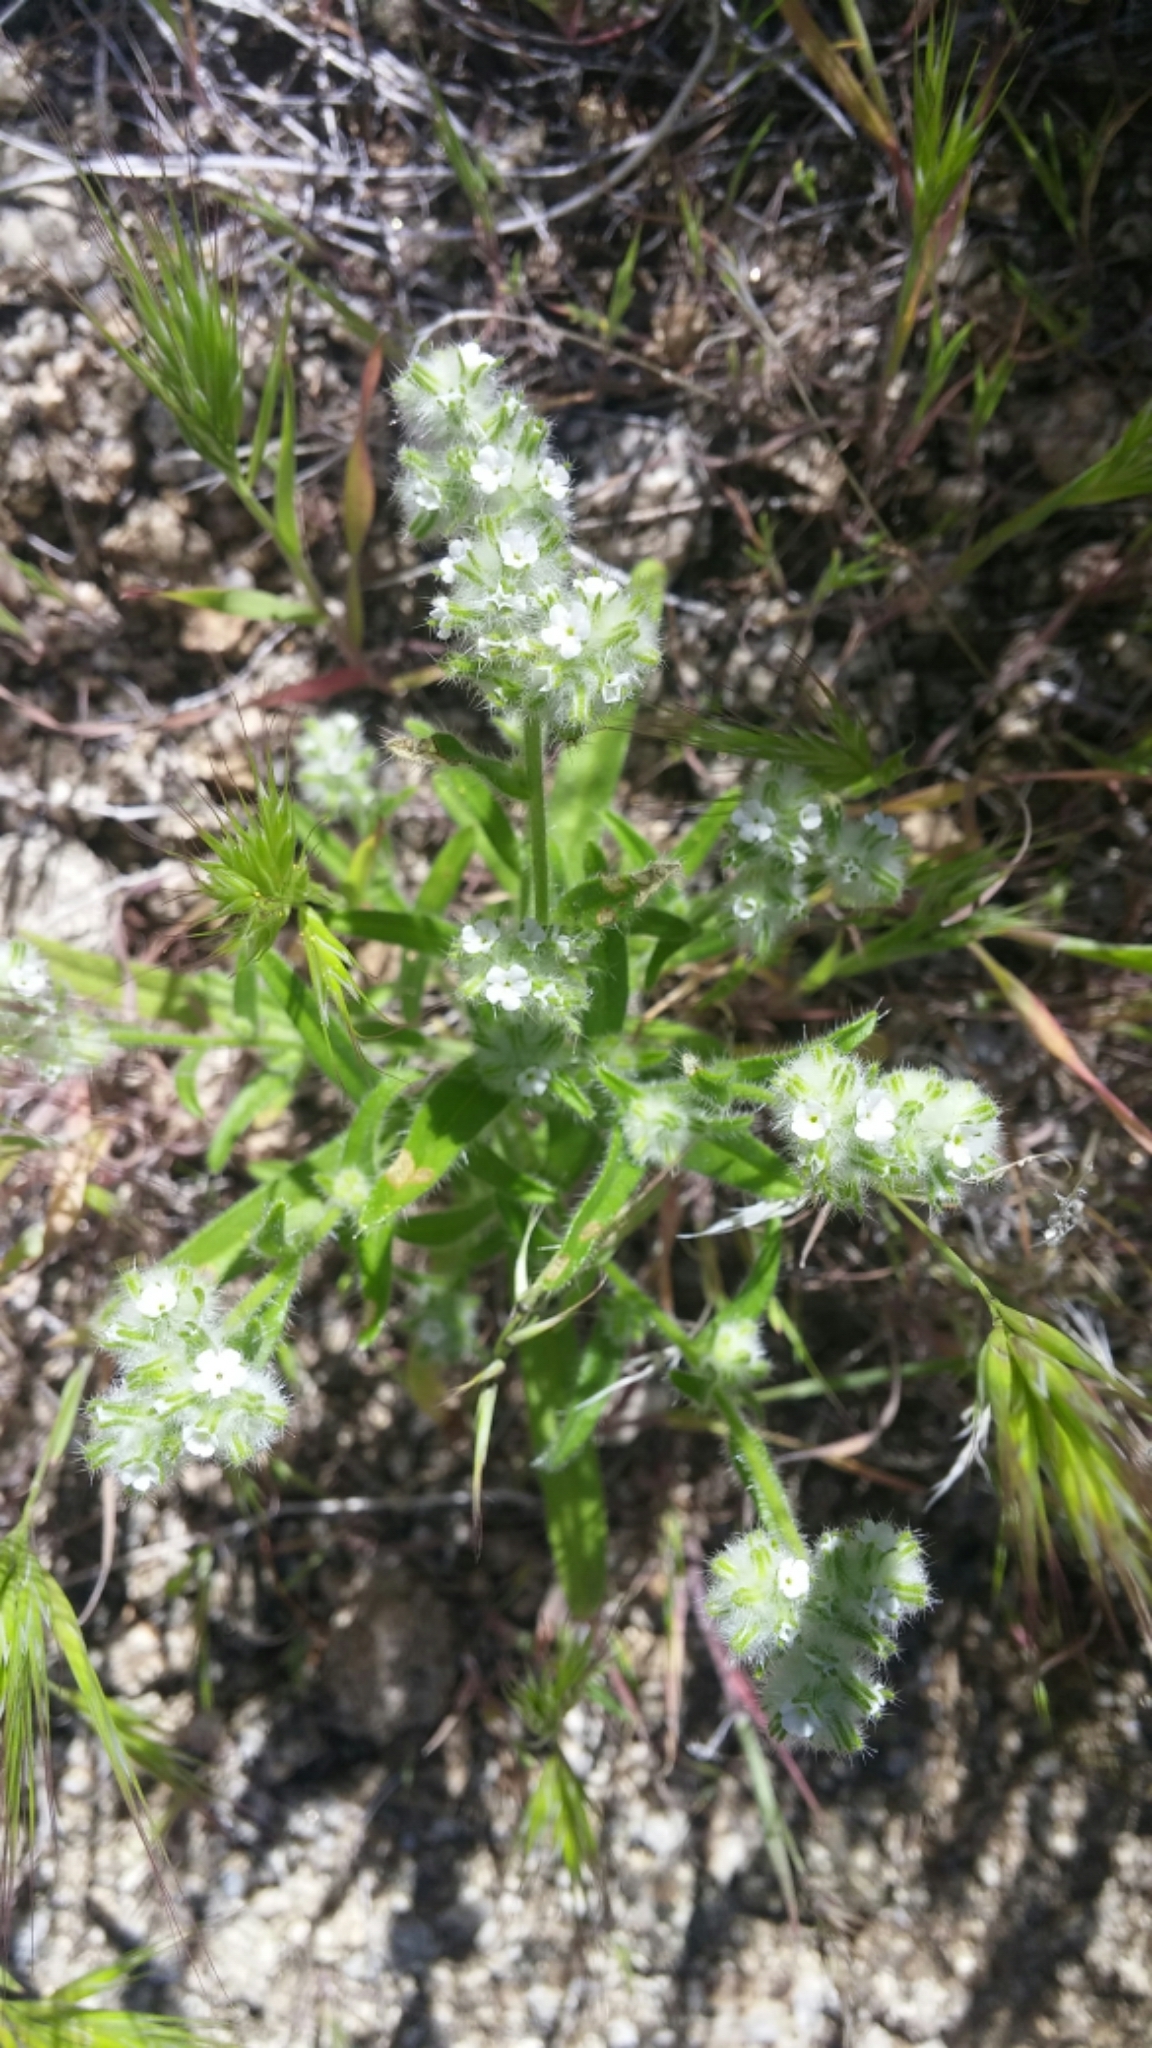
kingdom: Plantae
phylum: Tracheophyta
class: Magnoliopsida
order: Boraginales
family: Boraginaceae
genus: Cryptantha
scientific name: Cryptantha barbigera
